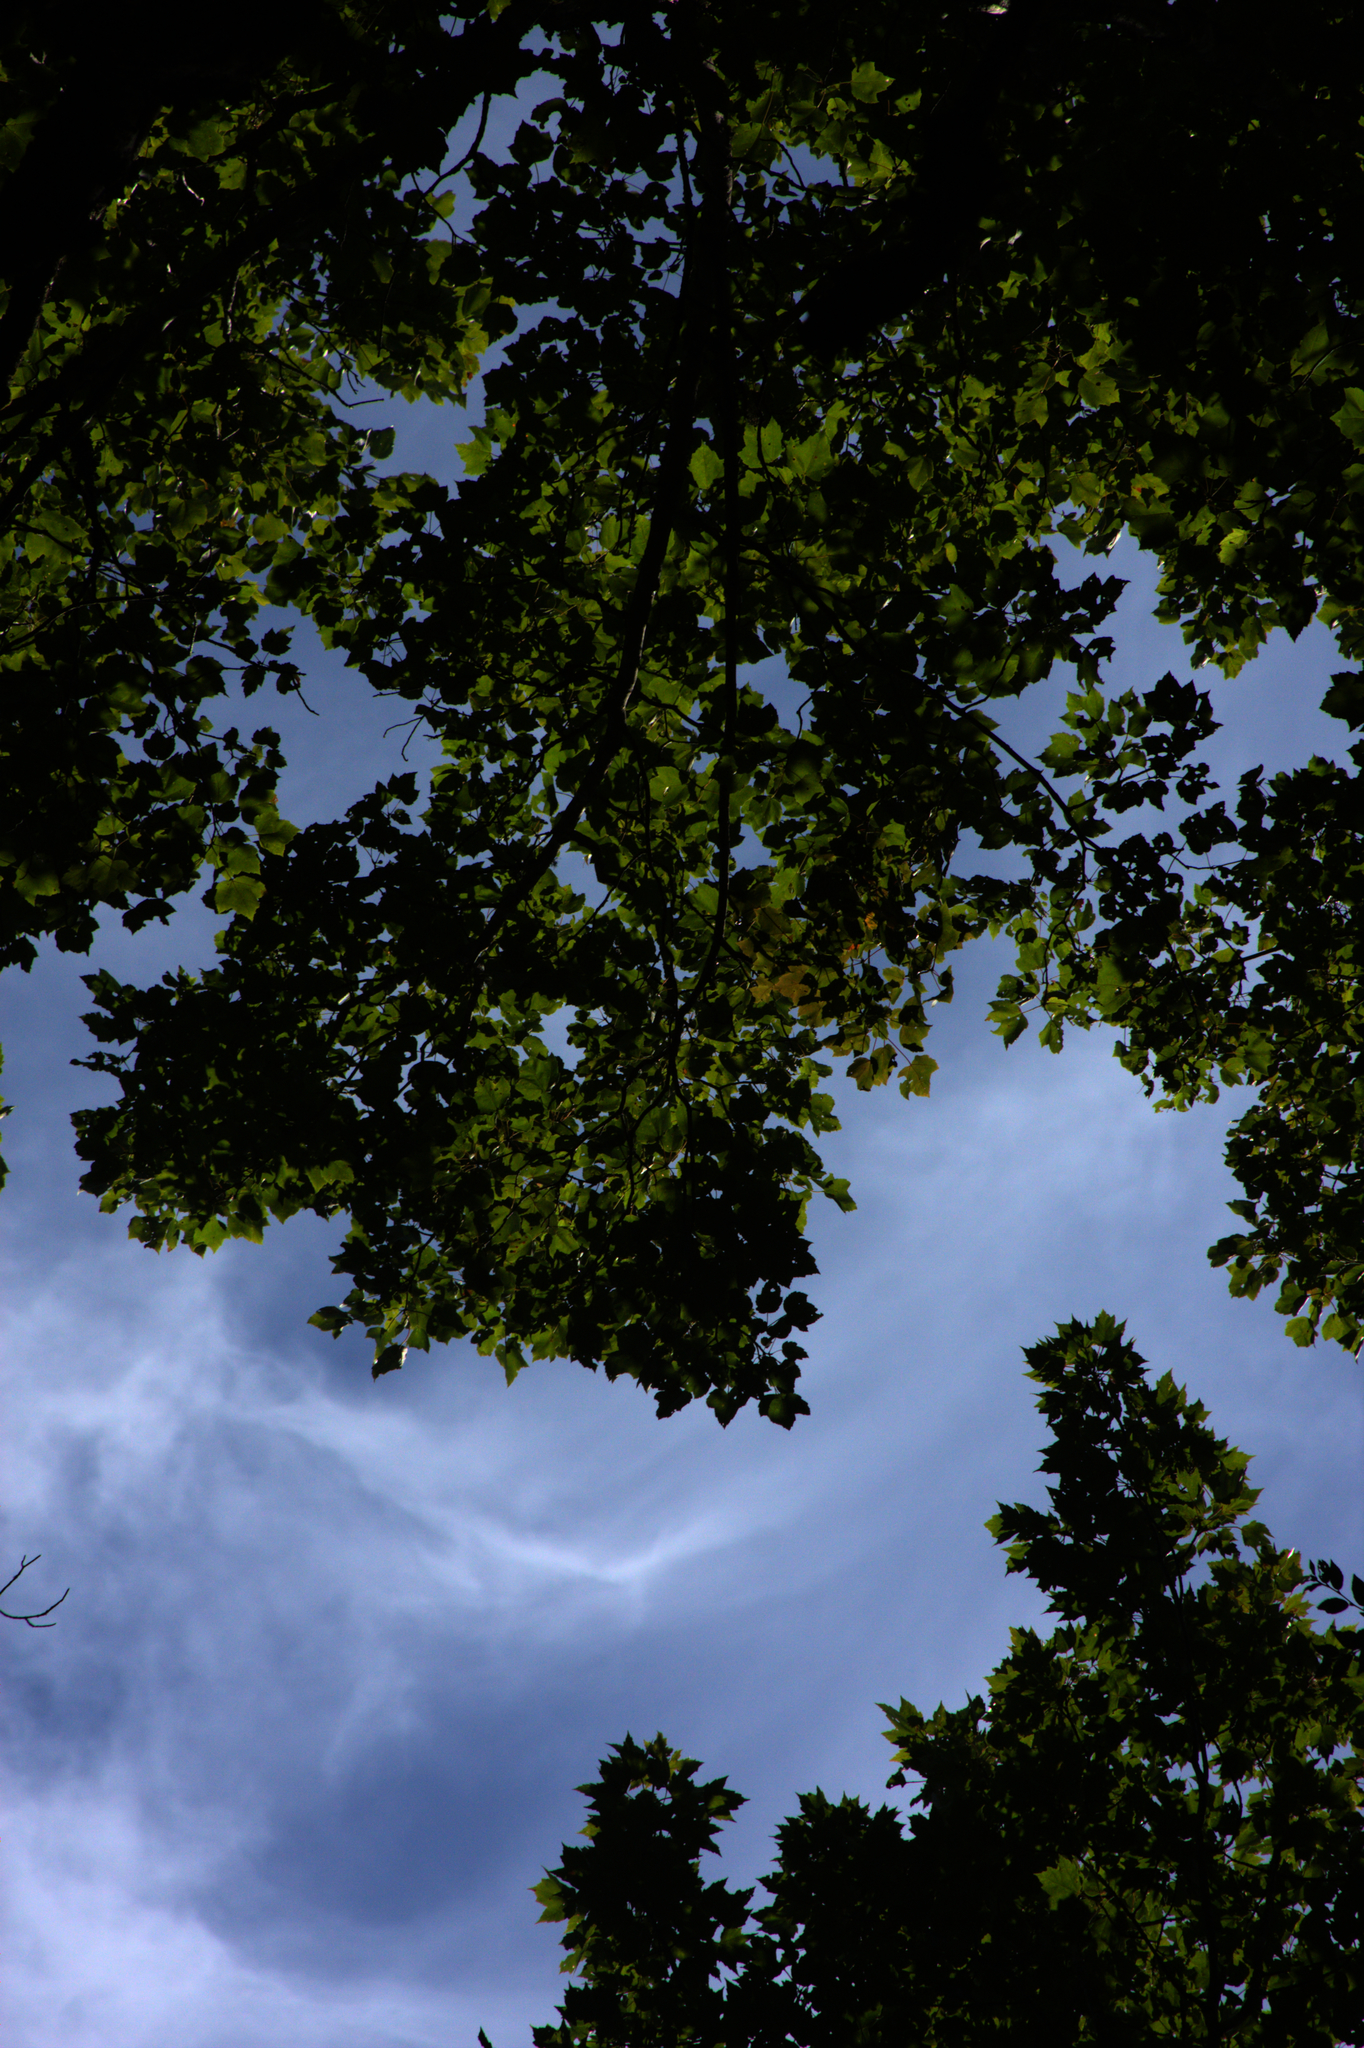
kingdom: Plantae
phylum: Tracheophyta
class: Magnoliopsida
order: Sapindales
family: Sapindaceae
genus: Acer
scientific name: Acer rubrum
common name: Red maple
